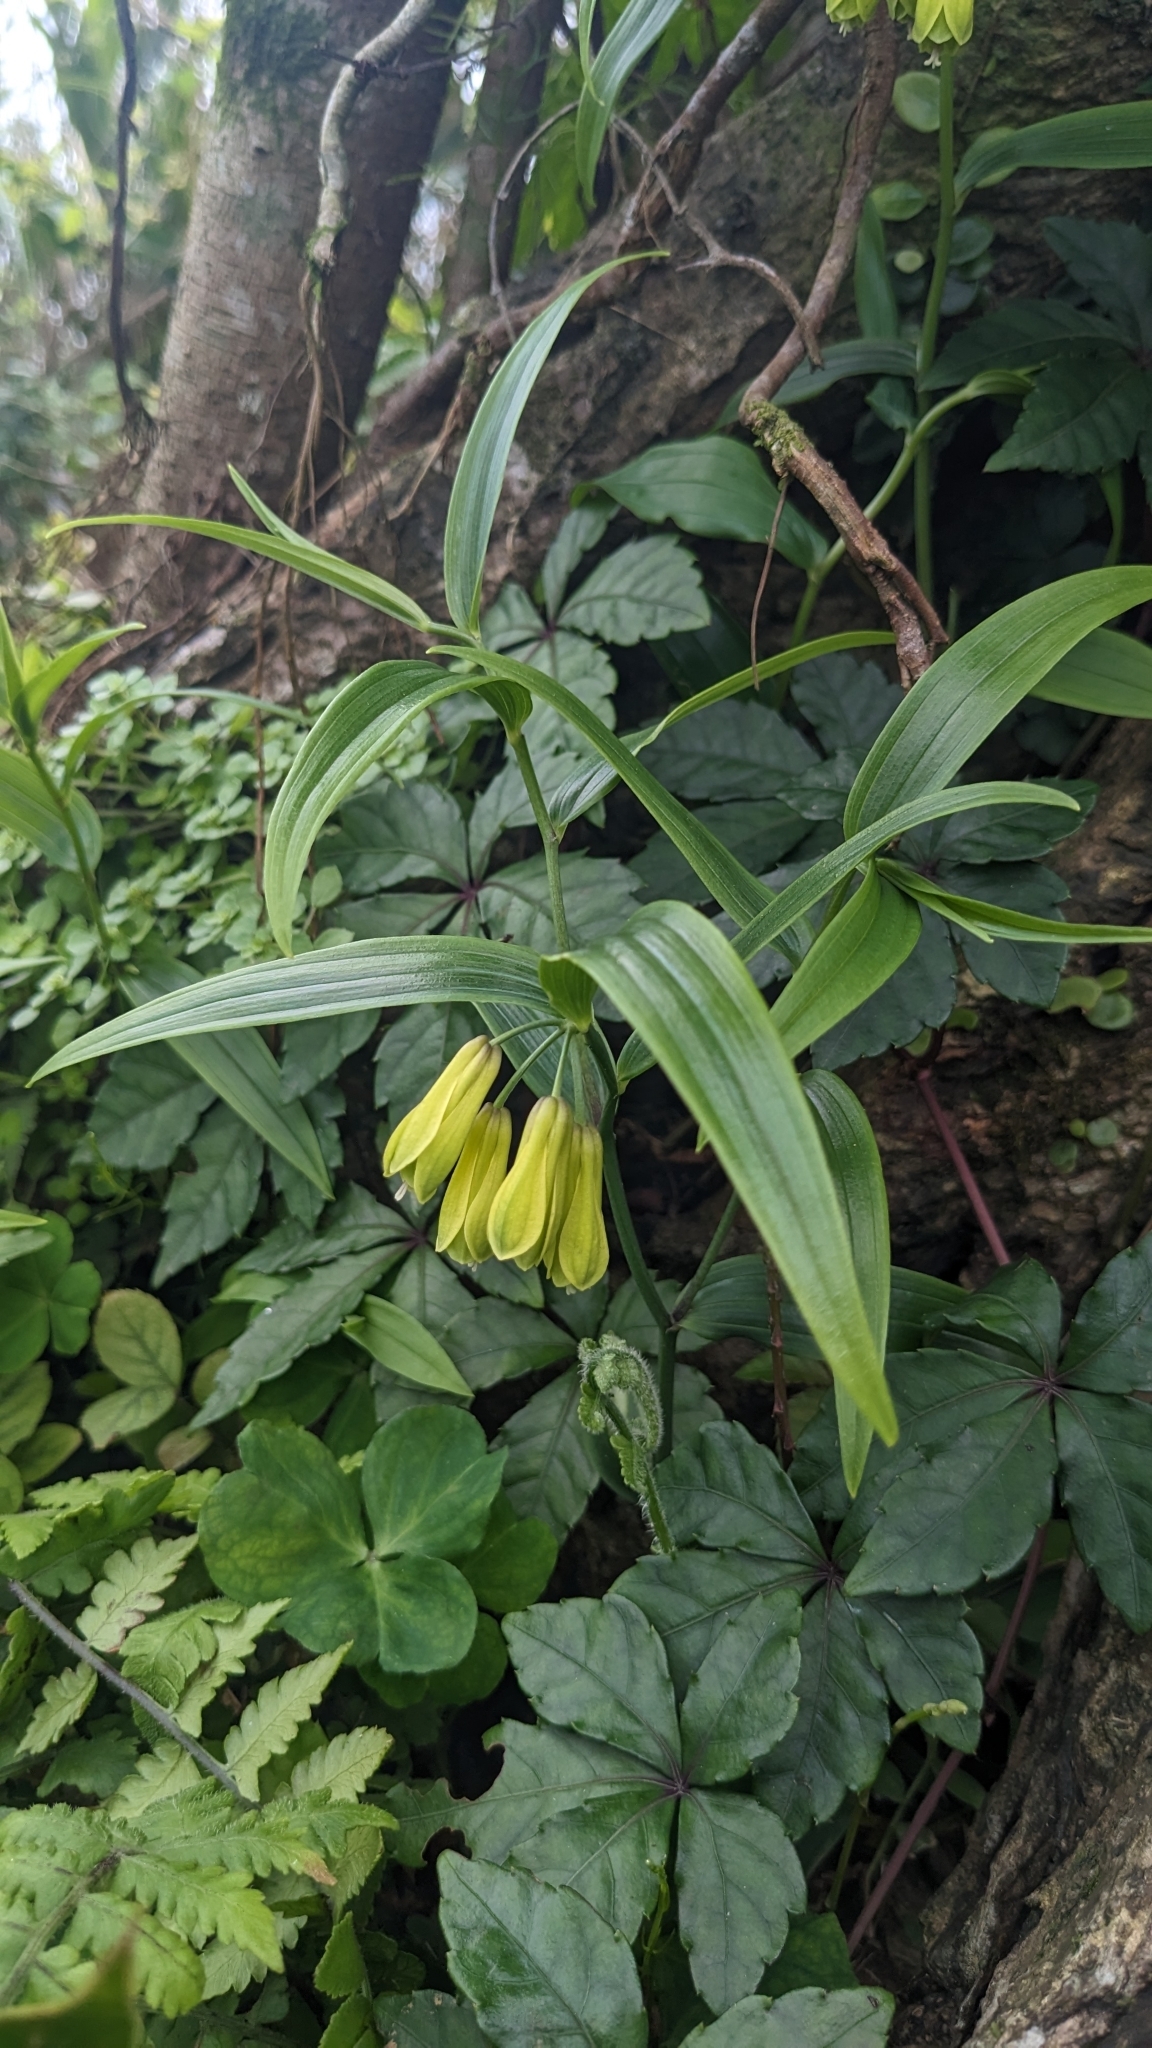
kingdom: Plantae
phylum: Tracheophyta
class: Liliopsida
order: Liliales
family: Colchicaceae
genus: Disporum
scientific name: Disporum shimadae
